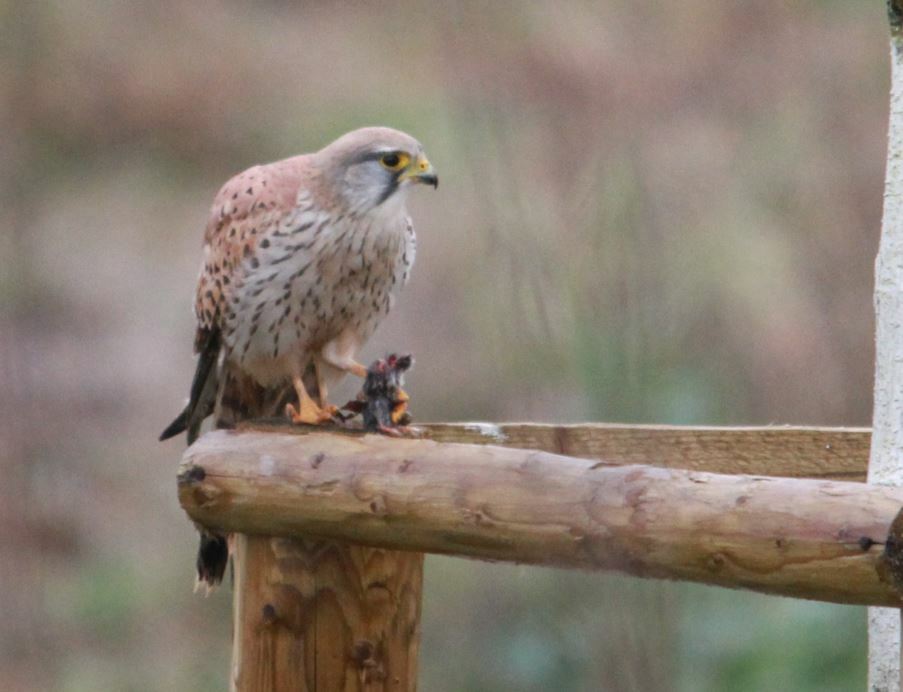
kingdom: Animalia
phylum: Chordata
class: Aves
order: Falconiformes
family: Falconidae
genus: Falco
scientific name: Falco tinnunculus
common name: Common kestrel
